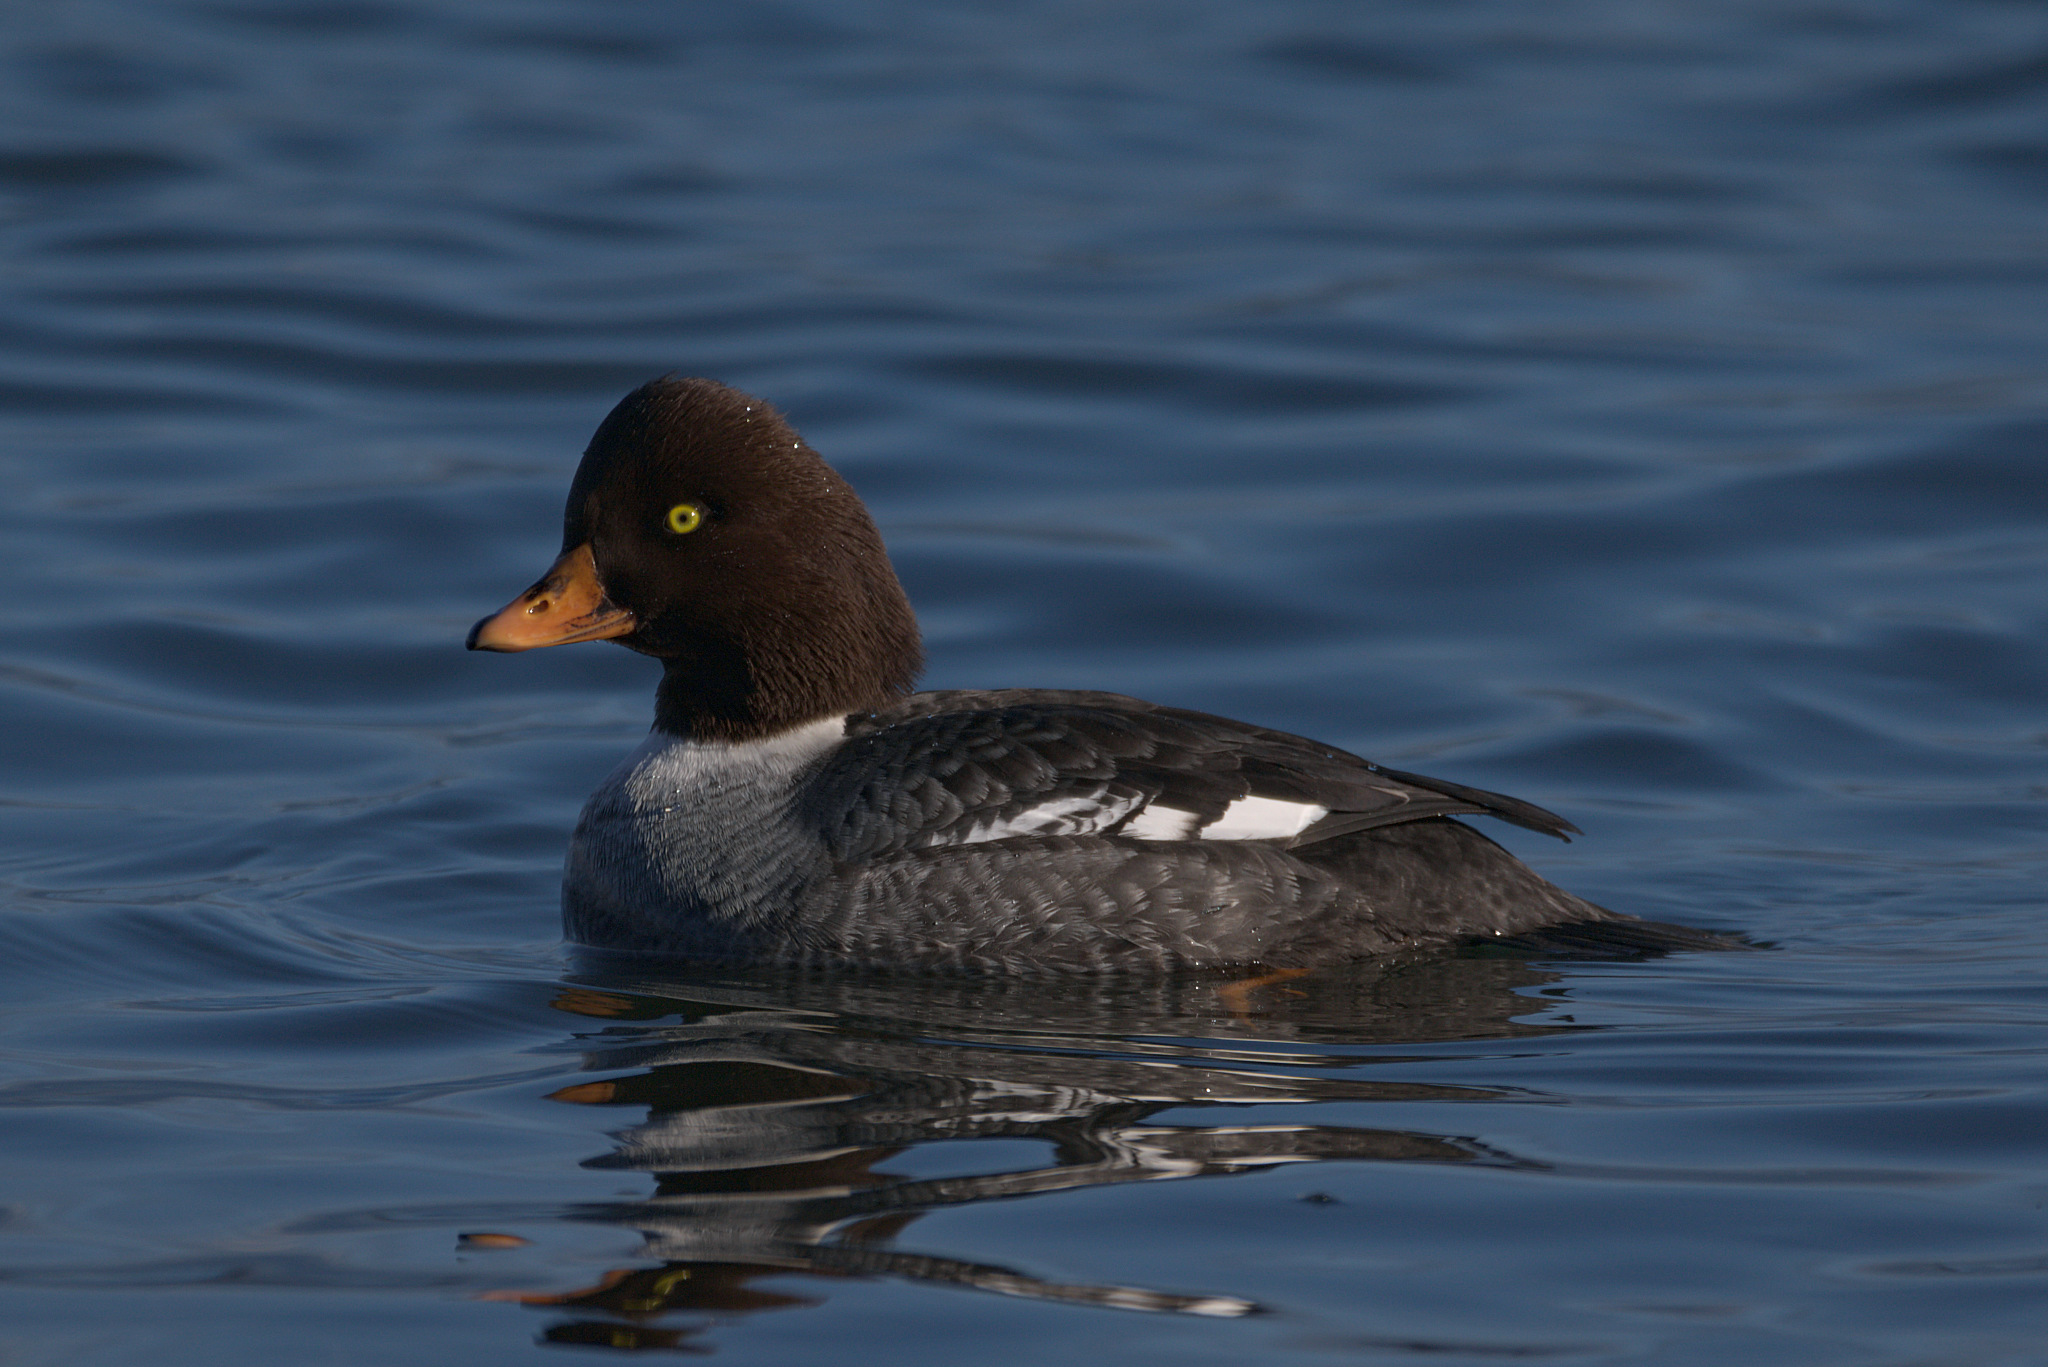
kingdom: Animalia
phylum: Chordata
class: Aves
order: Anseriformes
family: Anatidae
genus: Bucephala
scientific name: Bucephala islandica
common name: Barrow's goldeneye
